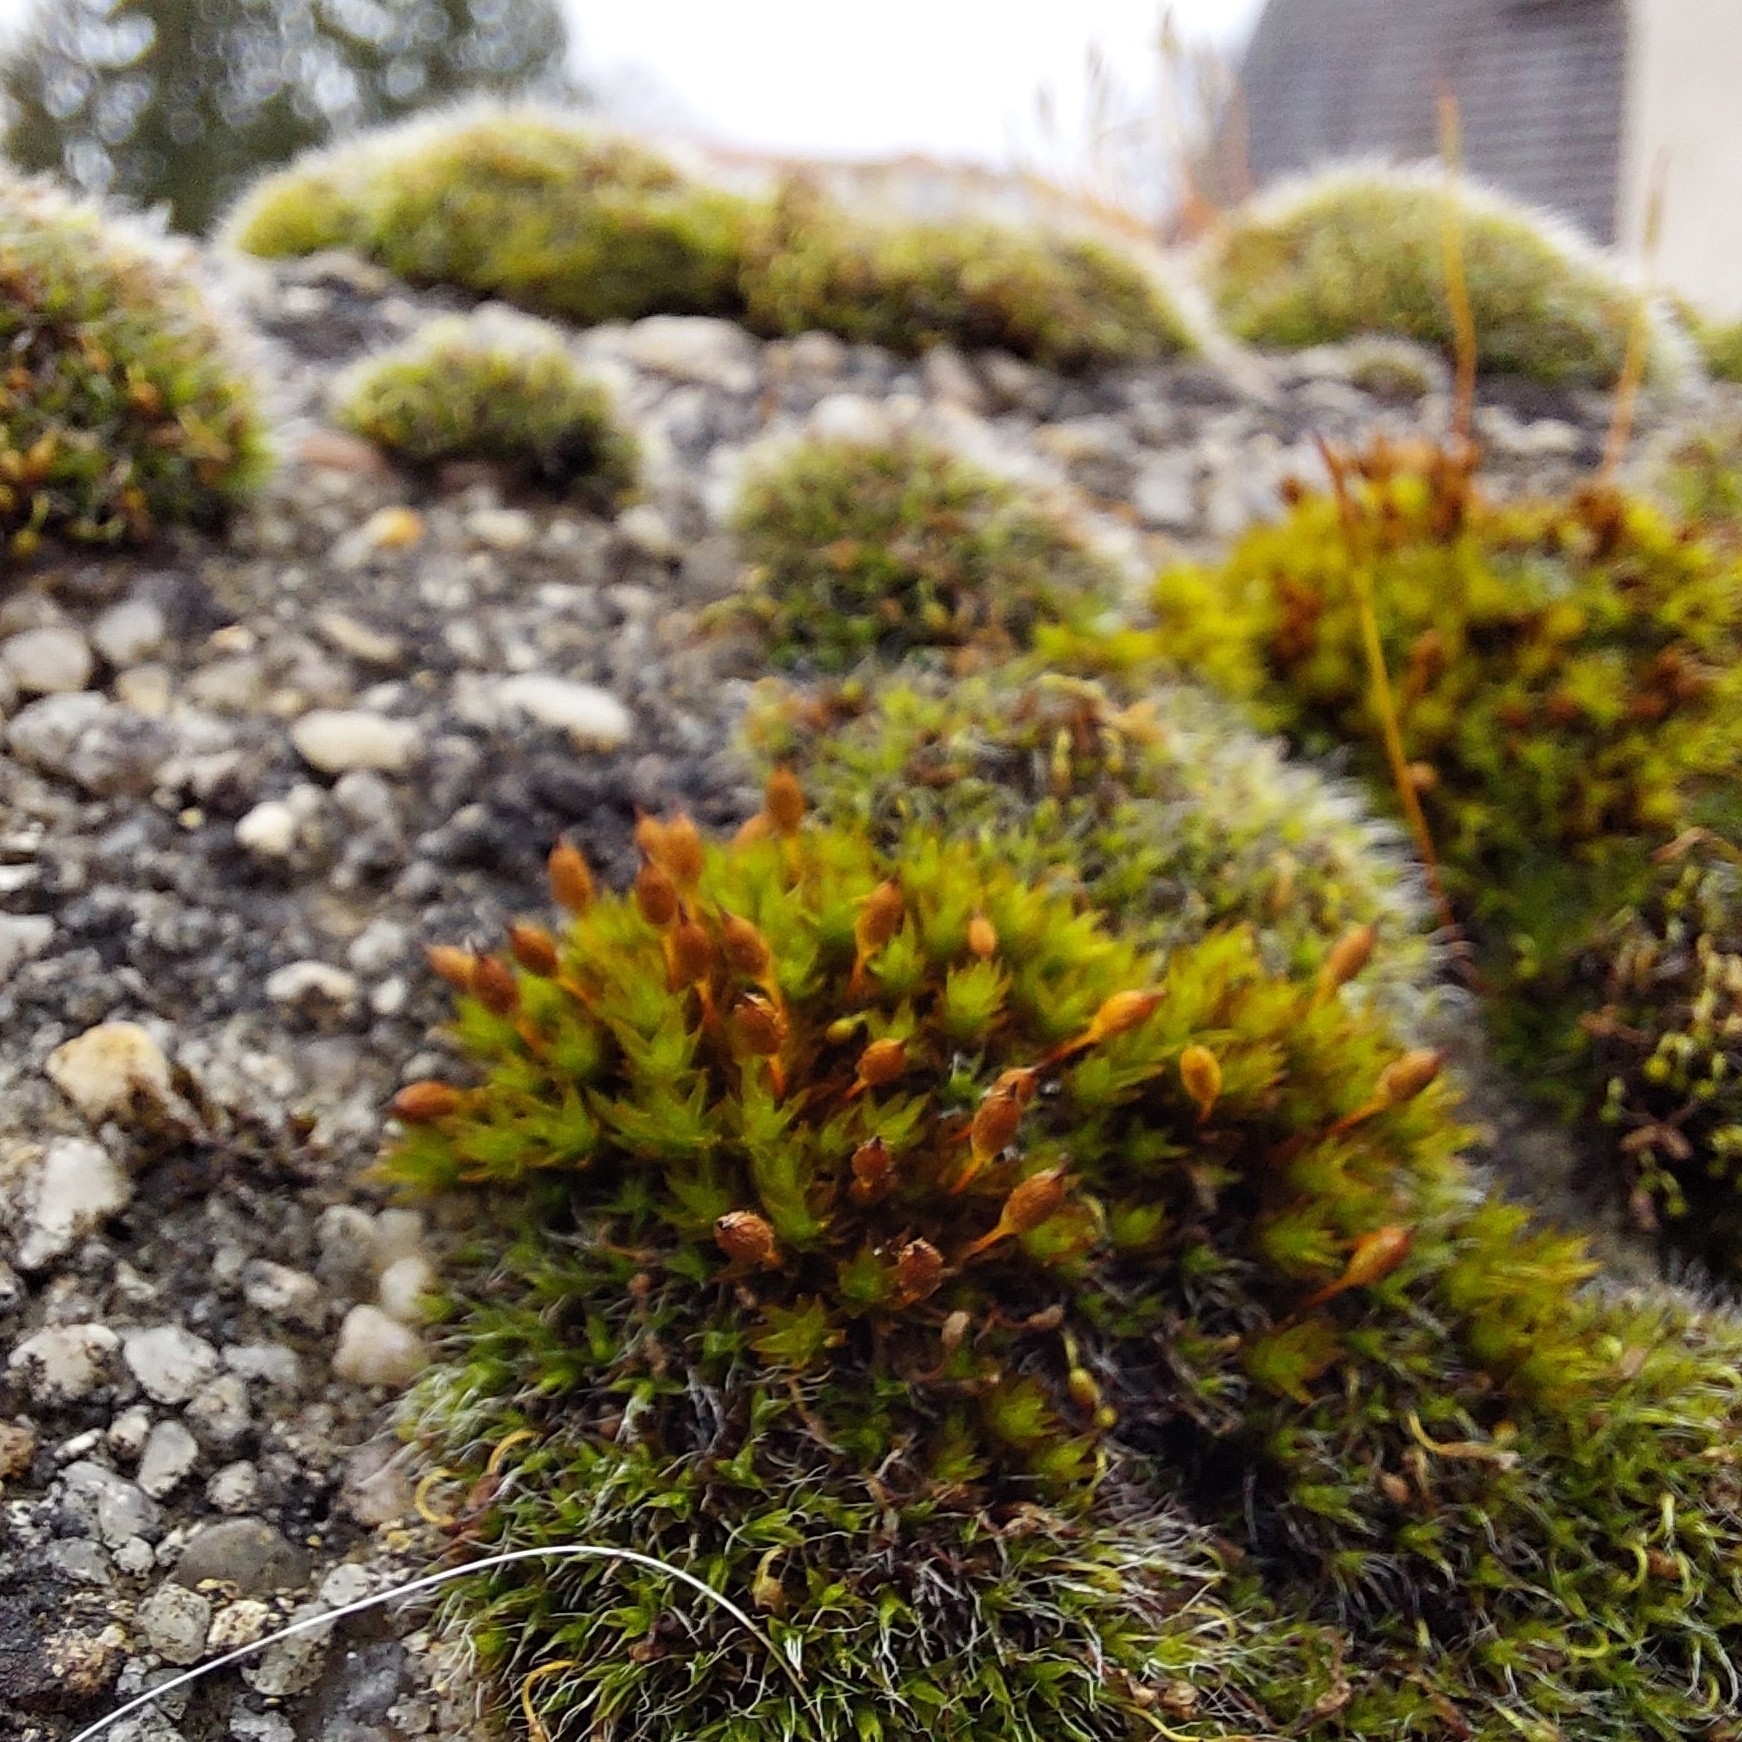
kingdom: Plantae
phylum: Bryophyta
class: Bryopsida
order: Orthotrichales
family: Orthotrichaceae
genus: Orthotrichum
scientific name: Orthotrichum anomalum
